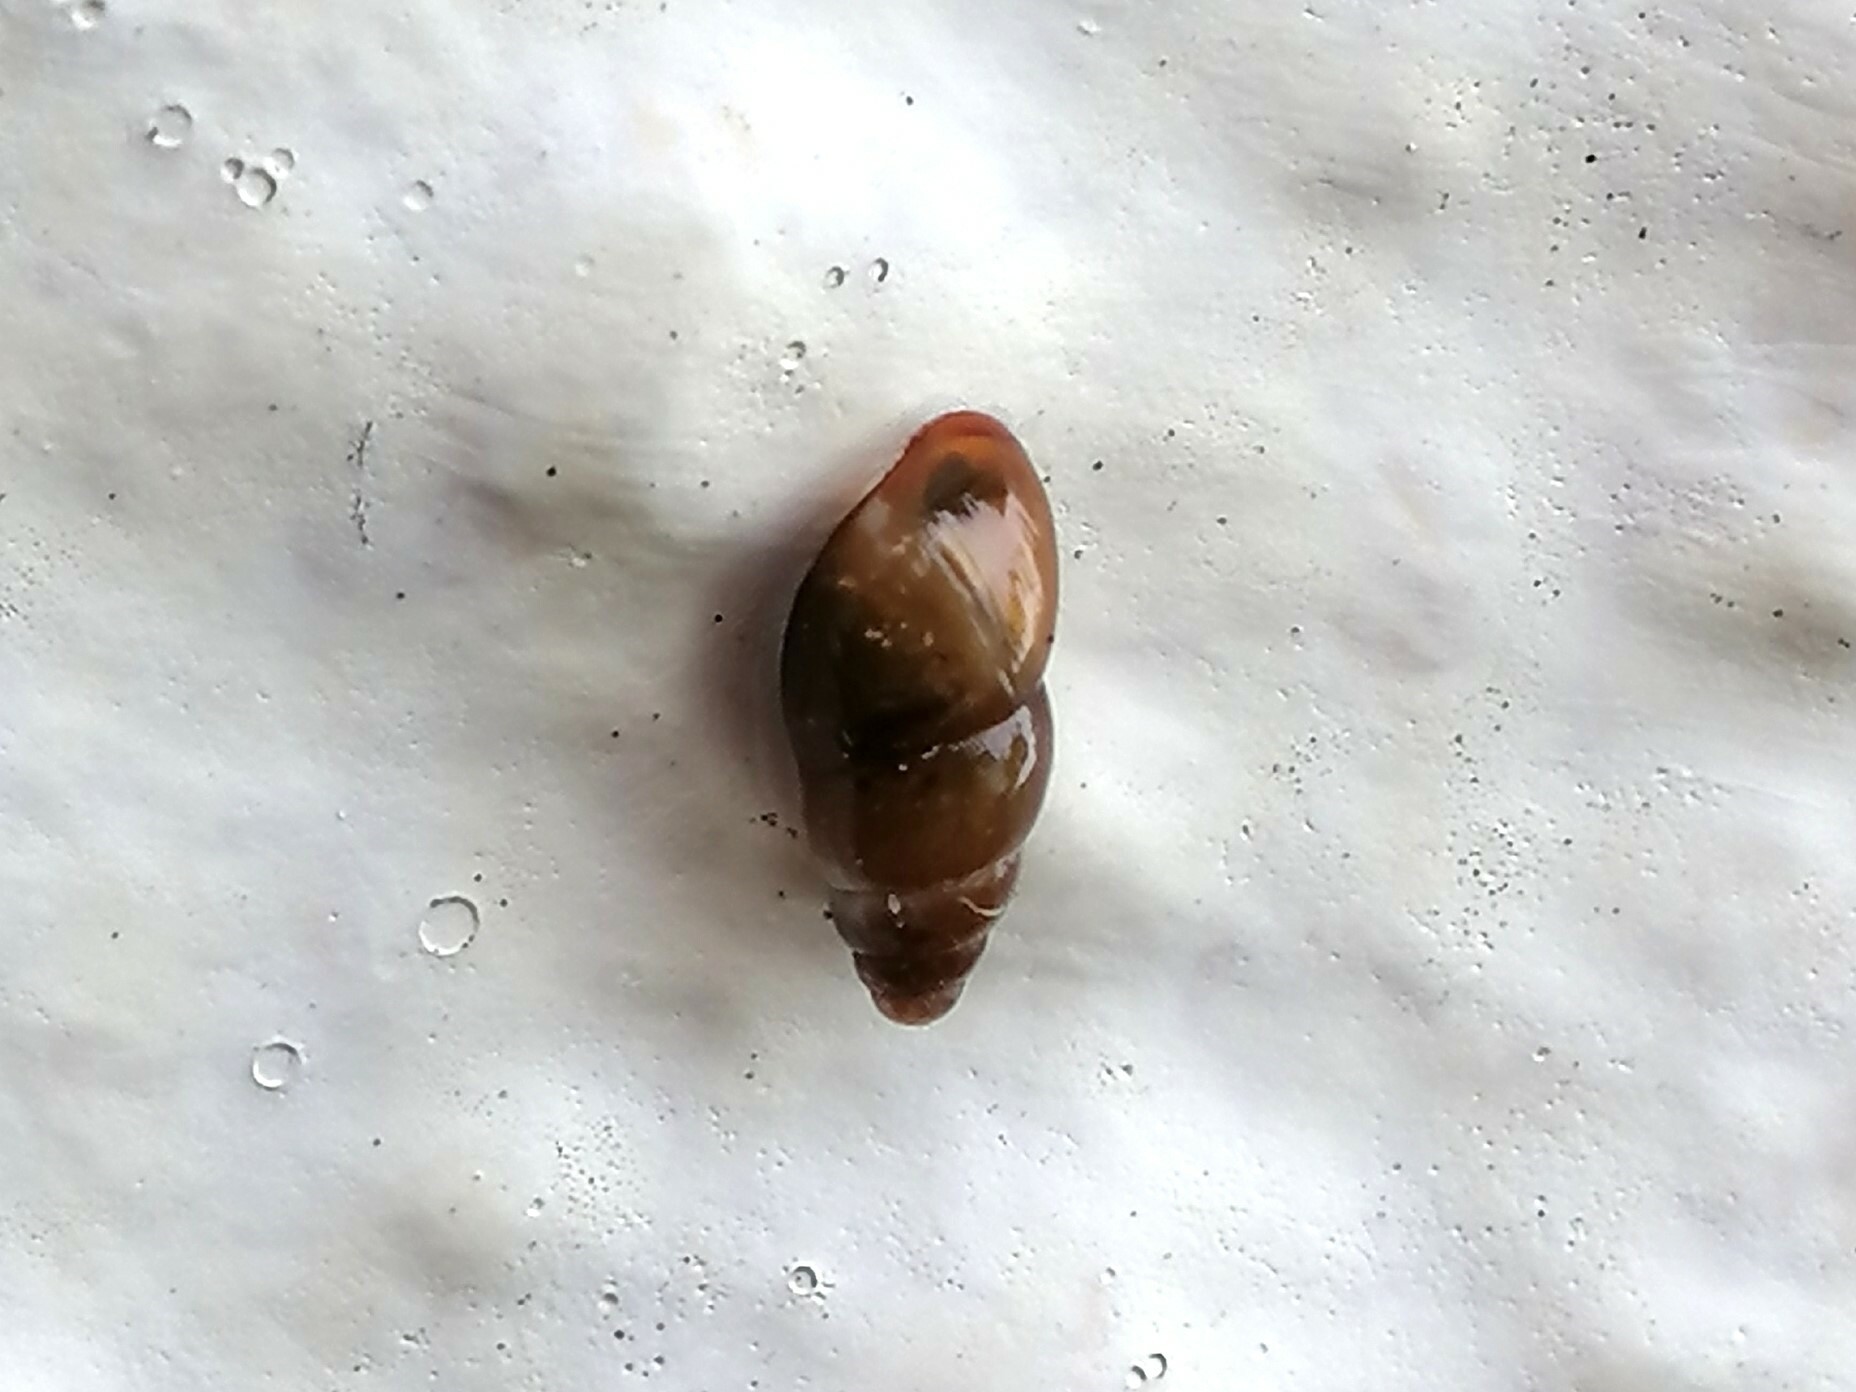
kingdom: Animalia
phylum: Mollusca
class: Gastropoda
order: Stylommatophora
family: Cochlicopidae
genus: Cochlicopa
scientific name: Cochlicopa lubrica
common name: Glossy pillar snail
